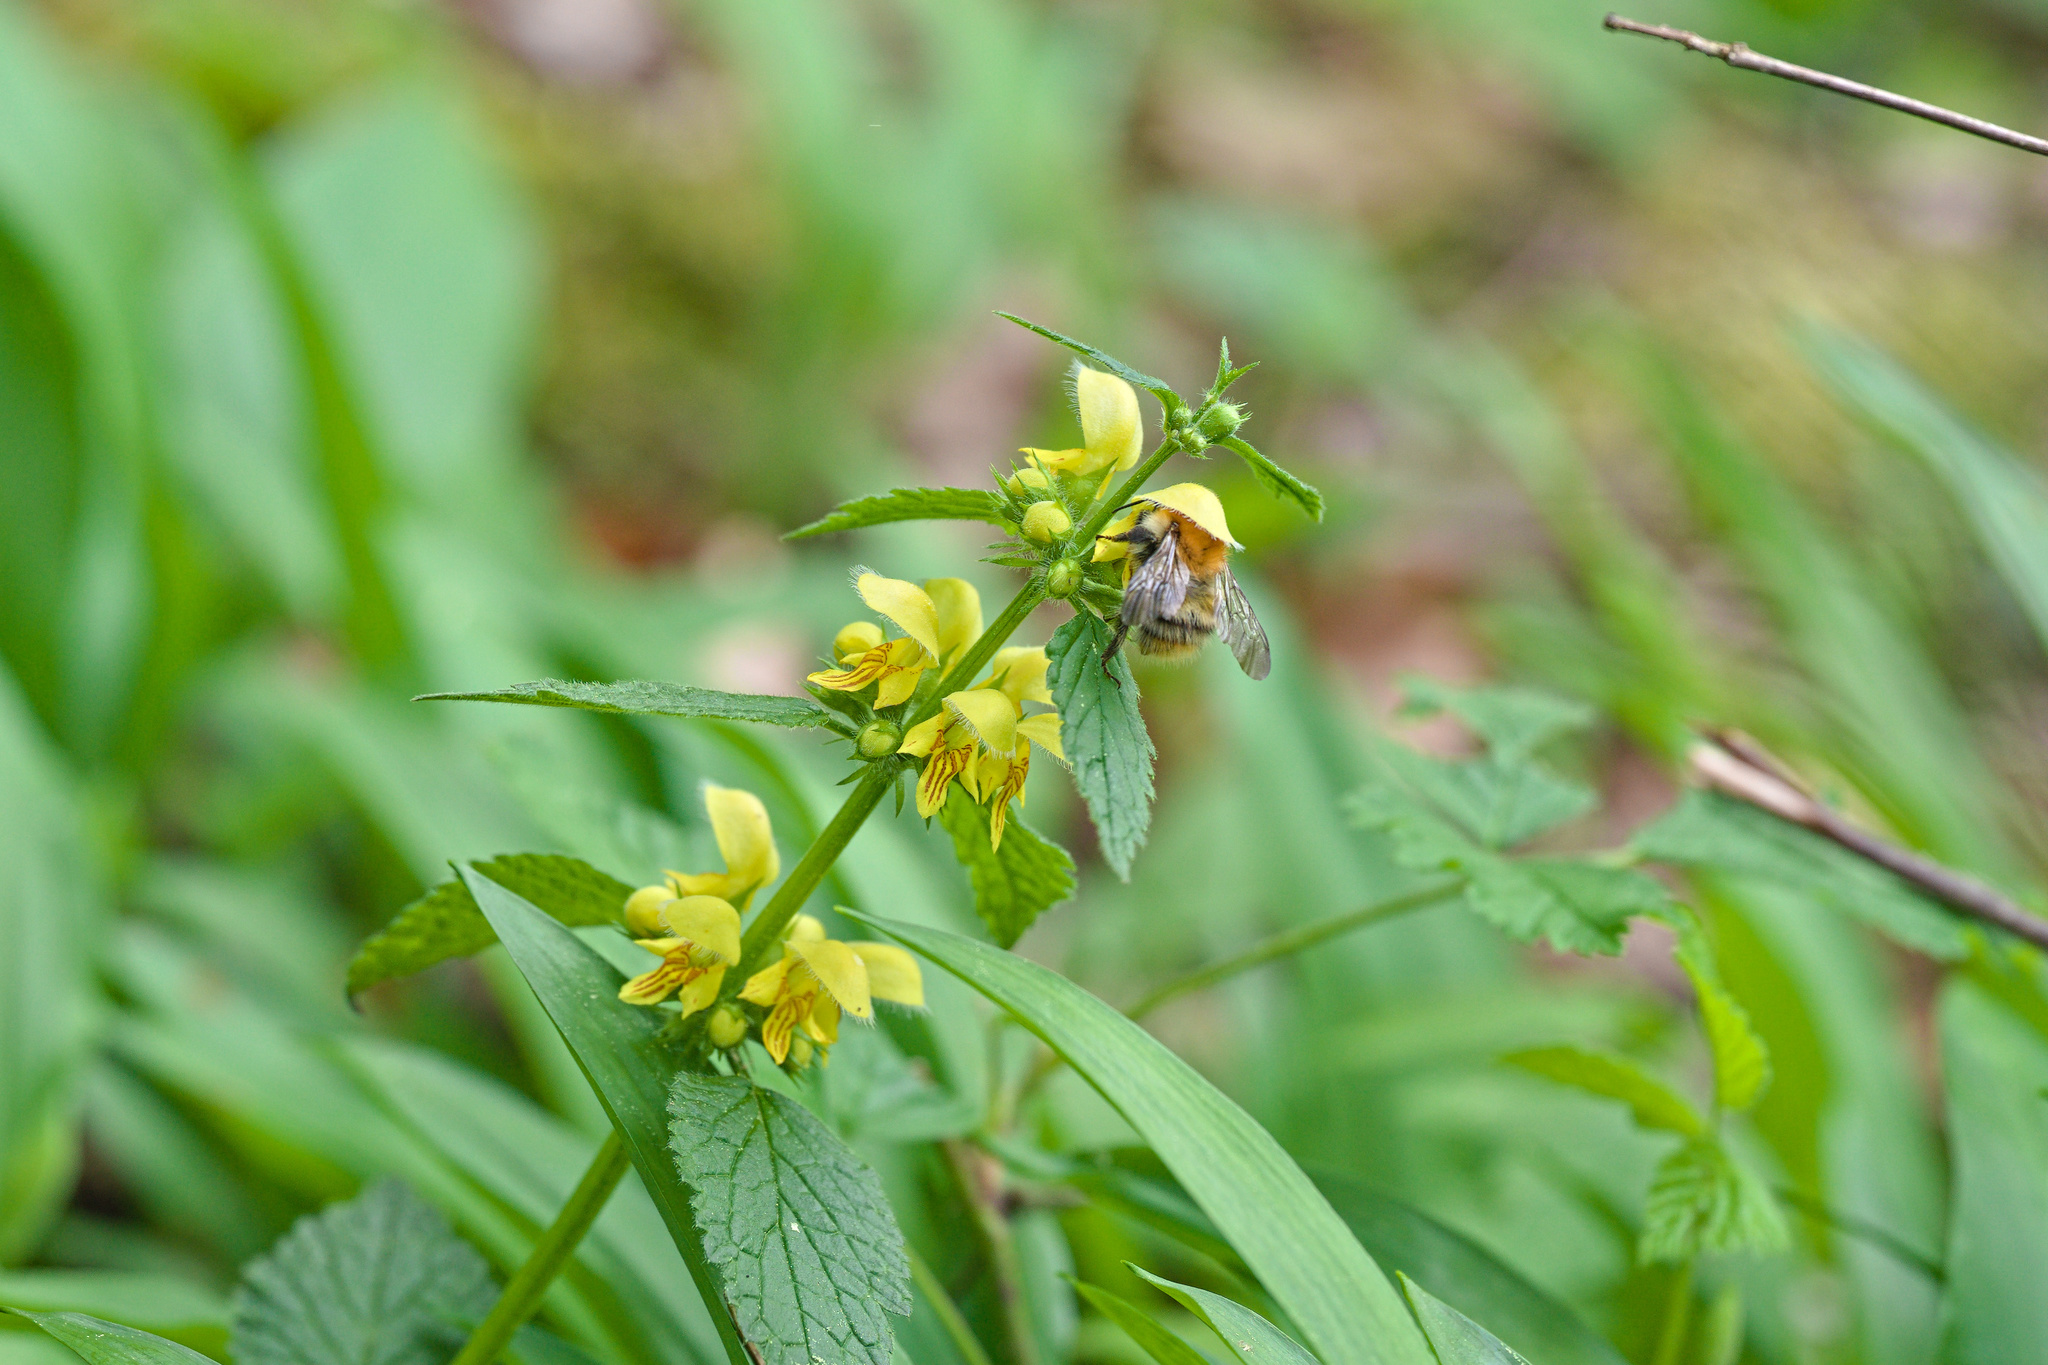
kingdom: Plantae
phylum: Tracheophyta
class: Magnoliopsida
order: Lamiales
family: Lamiaceae
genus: Lamium
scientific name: Lamium galeobdolon
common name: Yellow archangel
